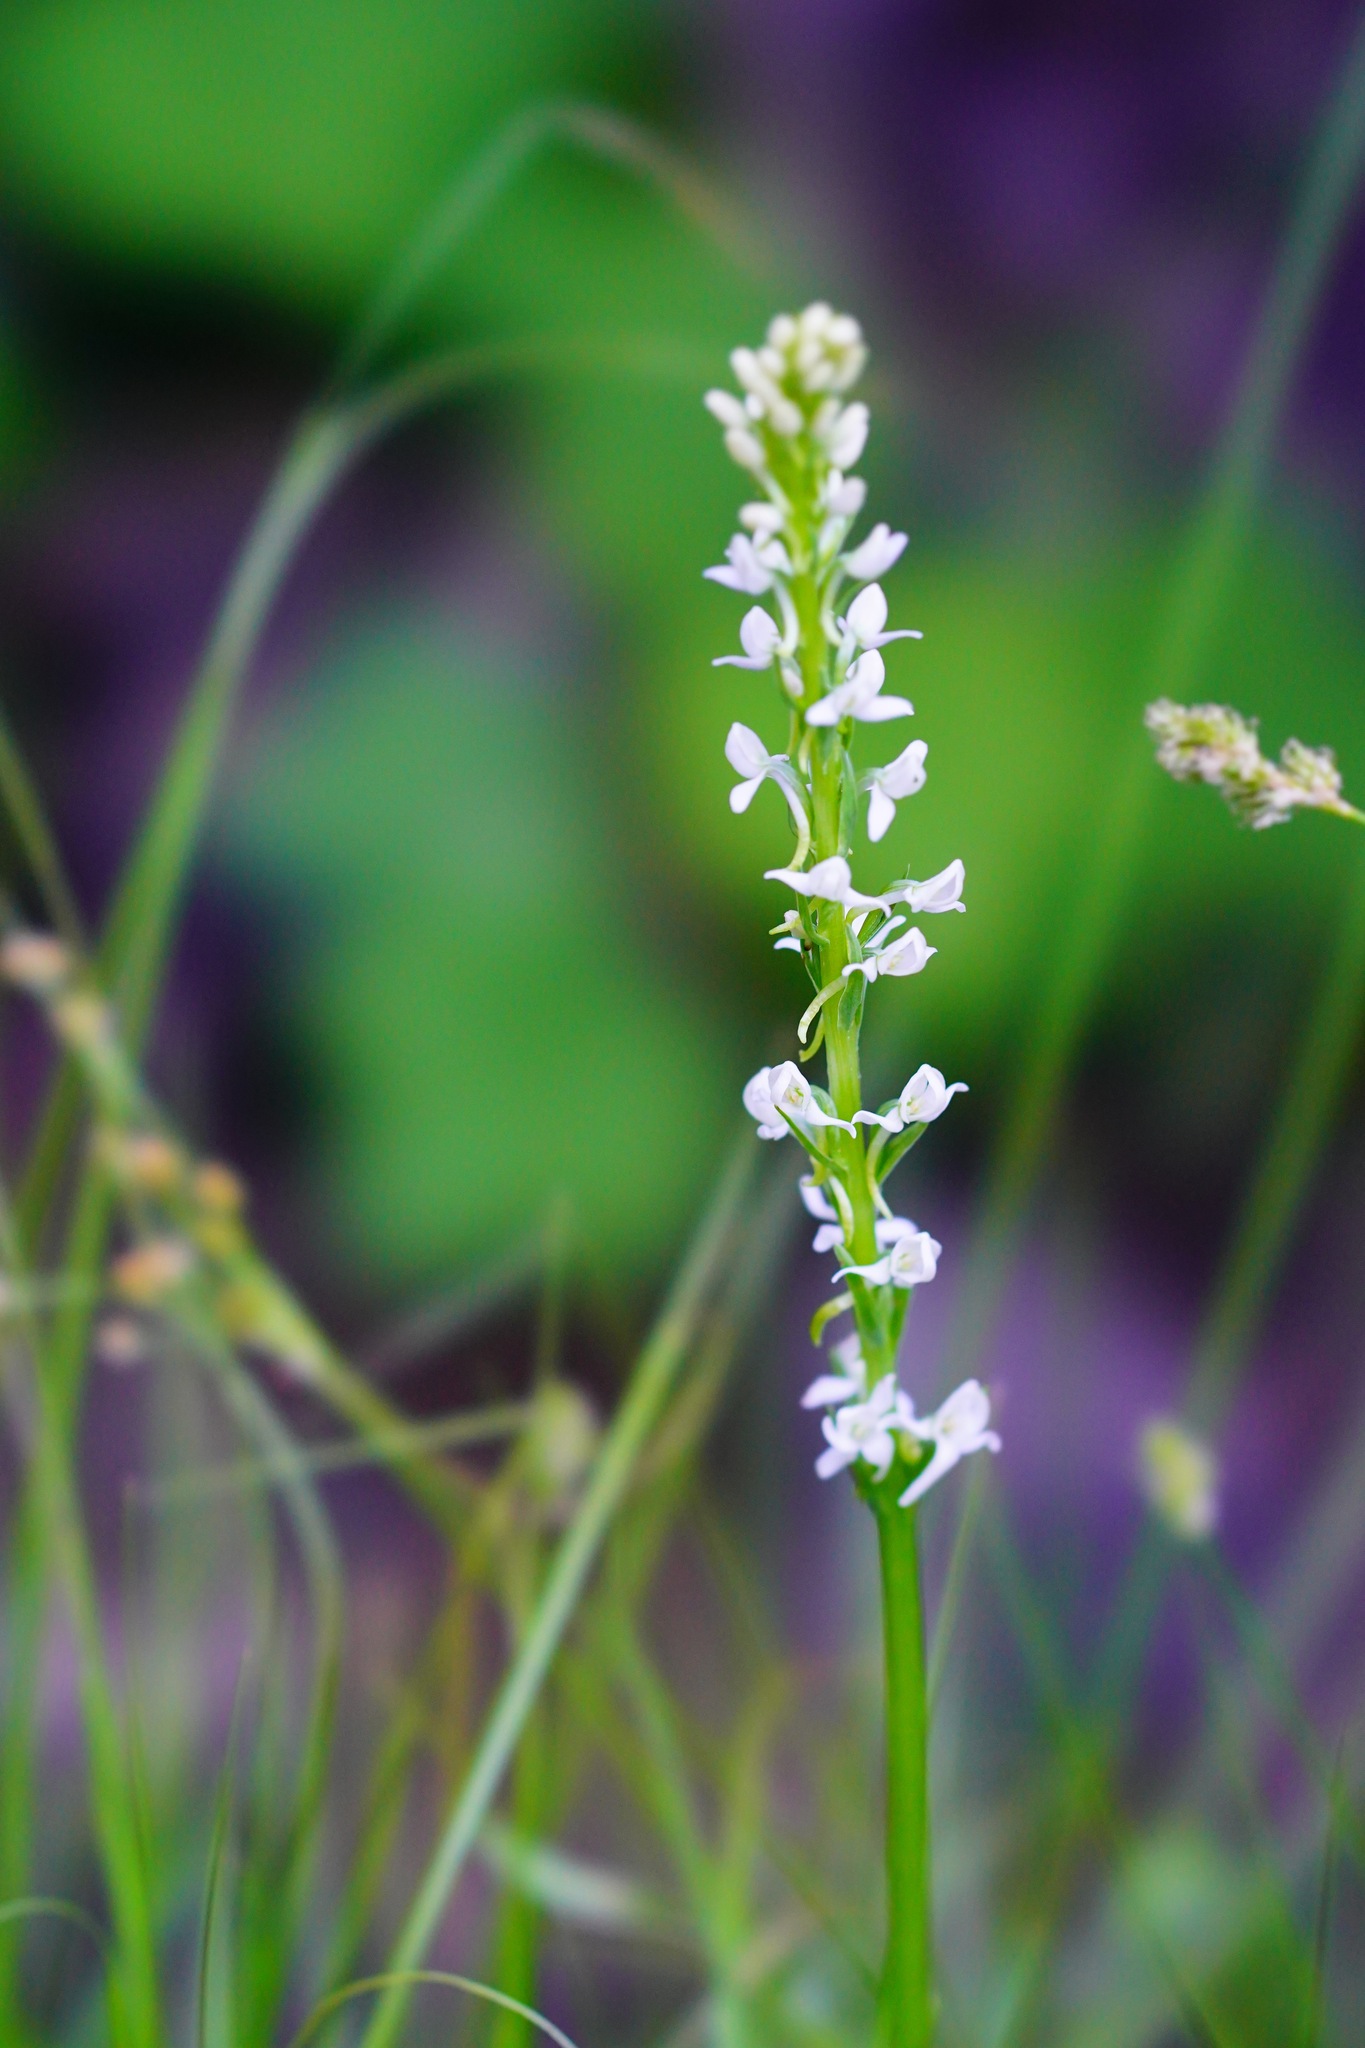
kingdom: Plantae
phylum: Tracheophyta
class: Liliopsida
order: Asparagales
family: Orchidaceae
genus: Platanthera
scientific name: Platanthera dilatata
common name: Bog candles
